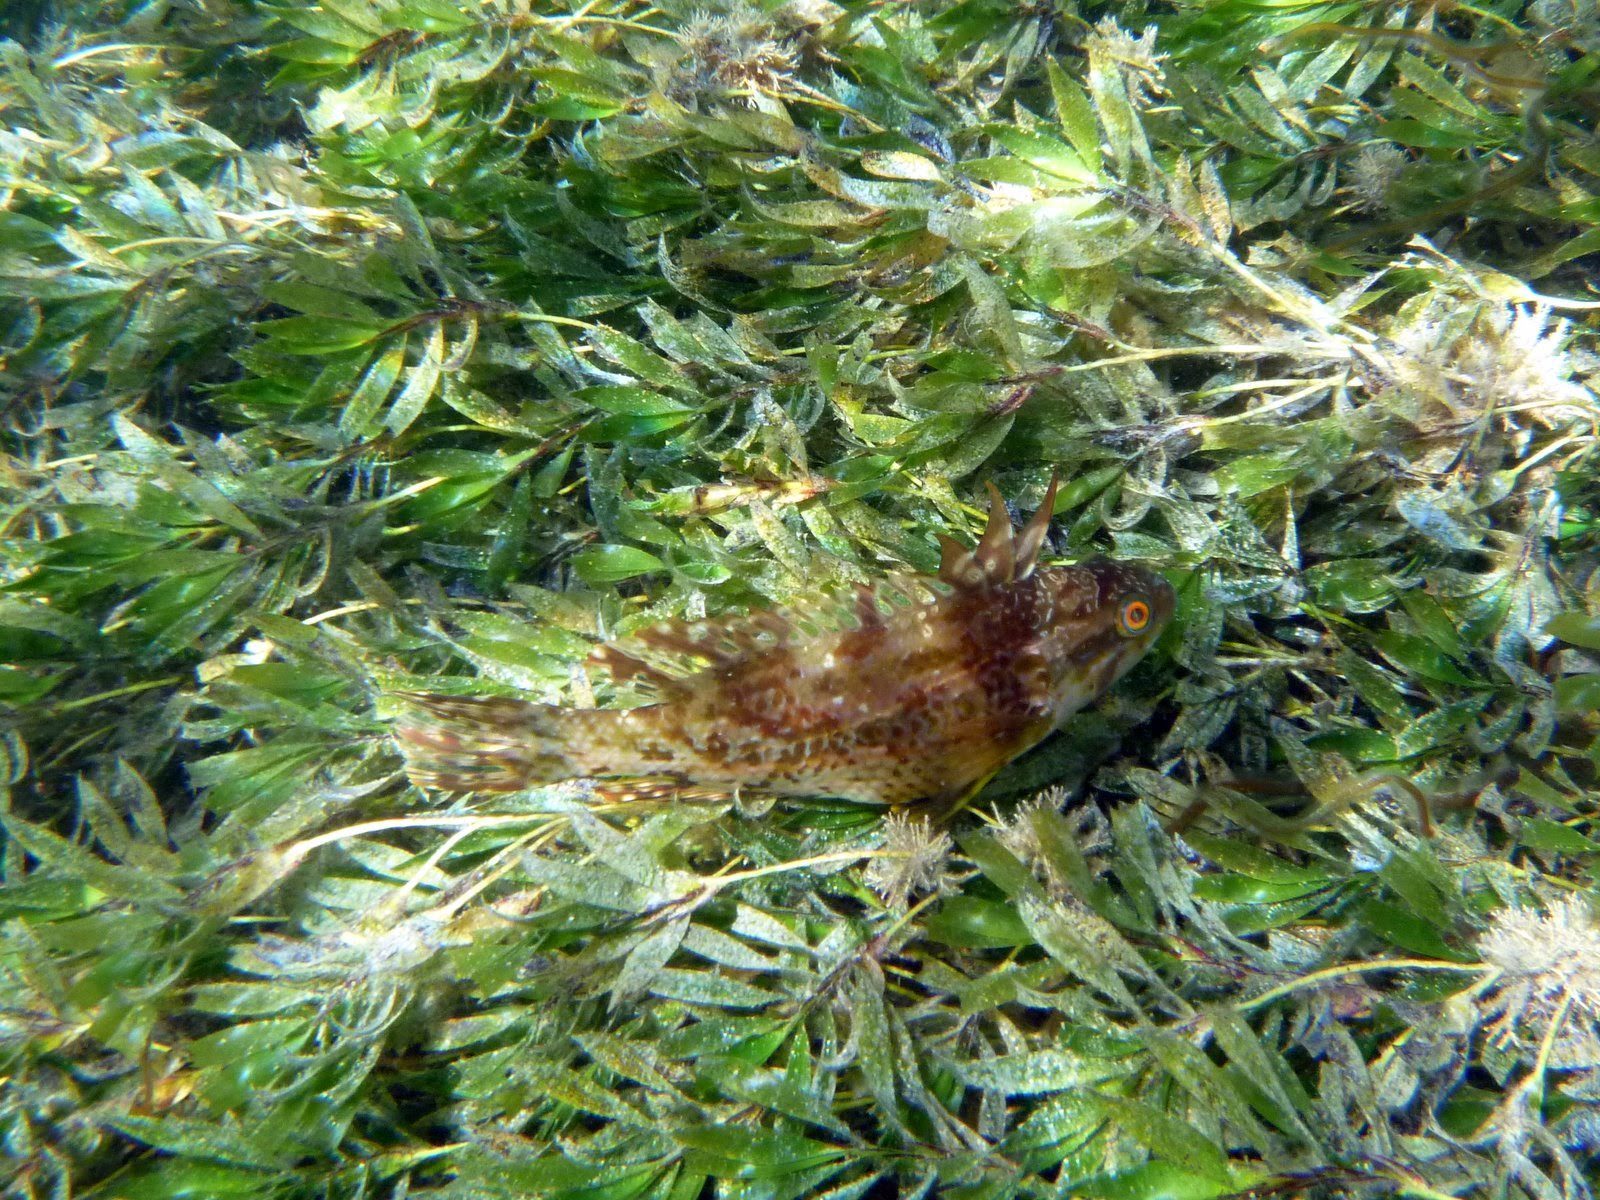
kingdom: Animalia
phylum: Chordata
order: Perciformes
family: Odacidae
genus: Heteroscarus
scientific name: Heteroscarus acroptilus
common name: Marine rainbowfish
